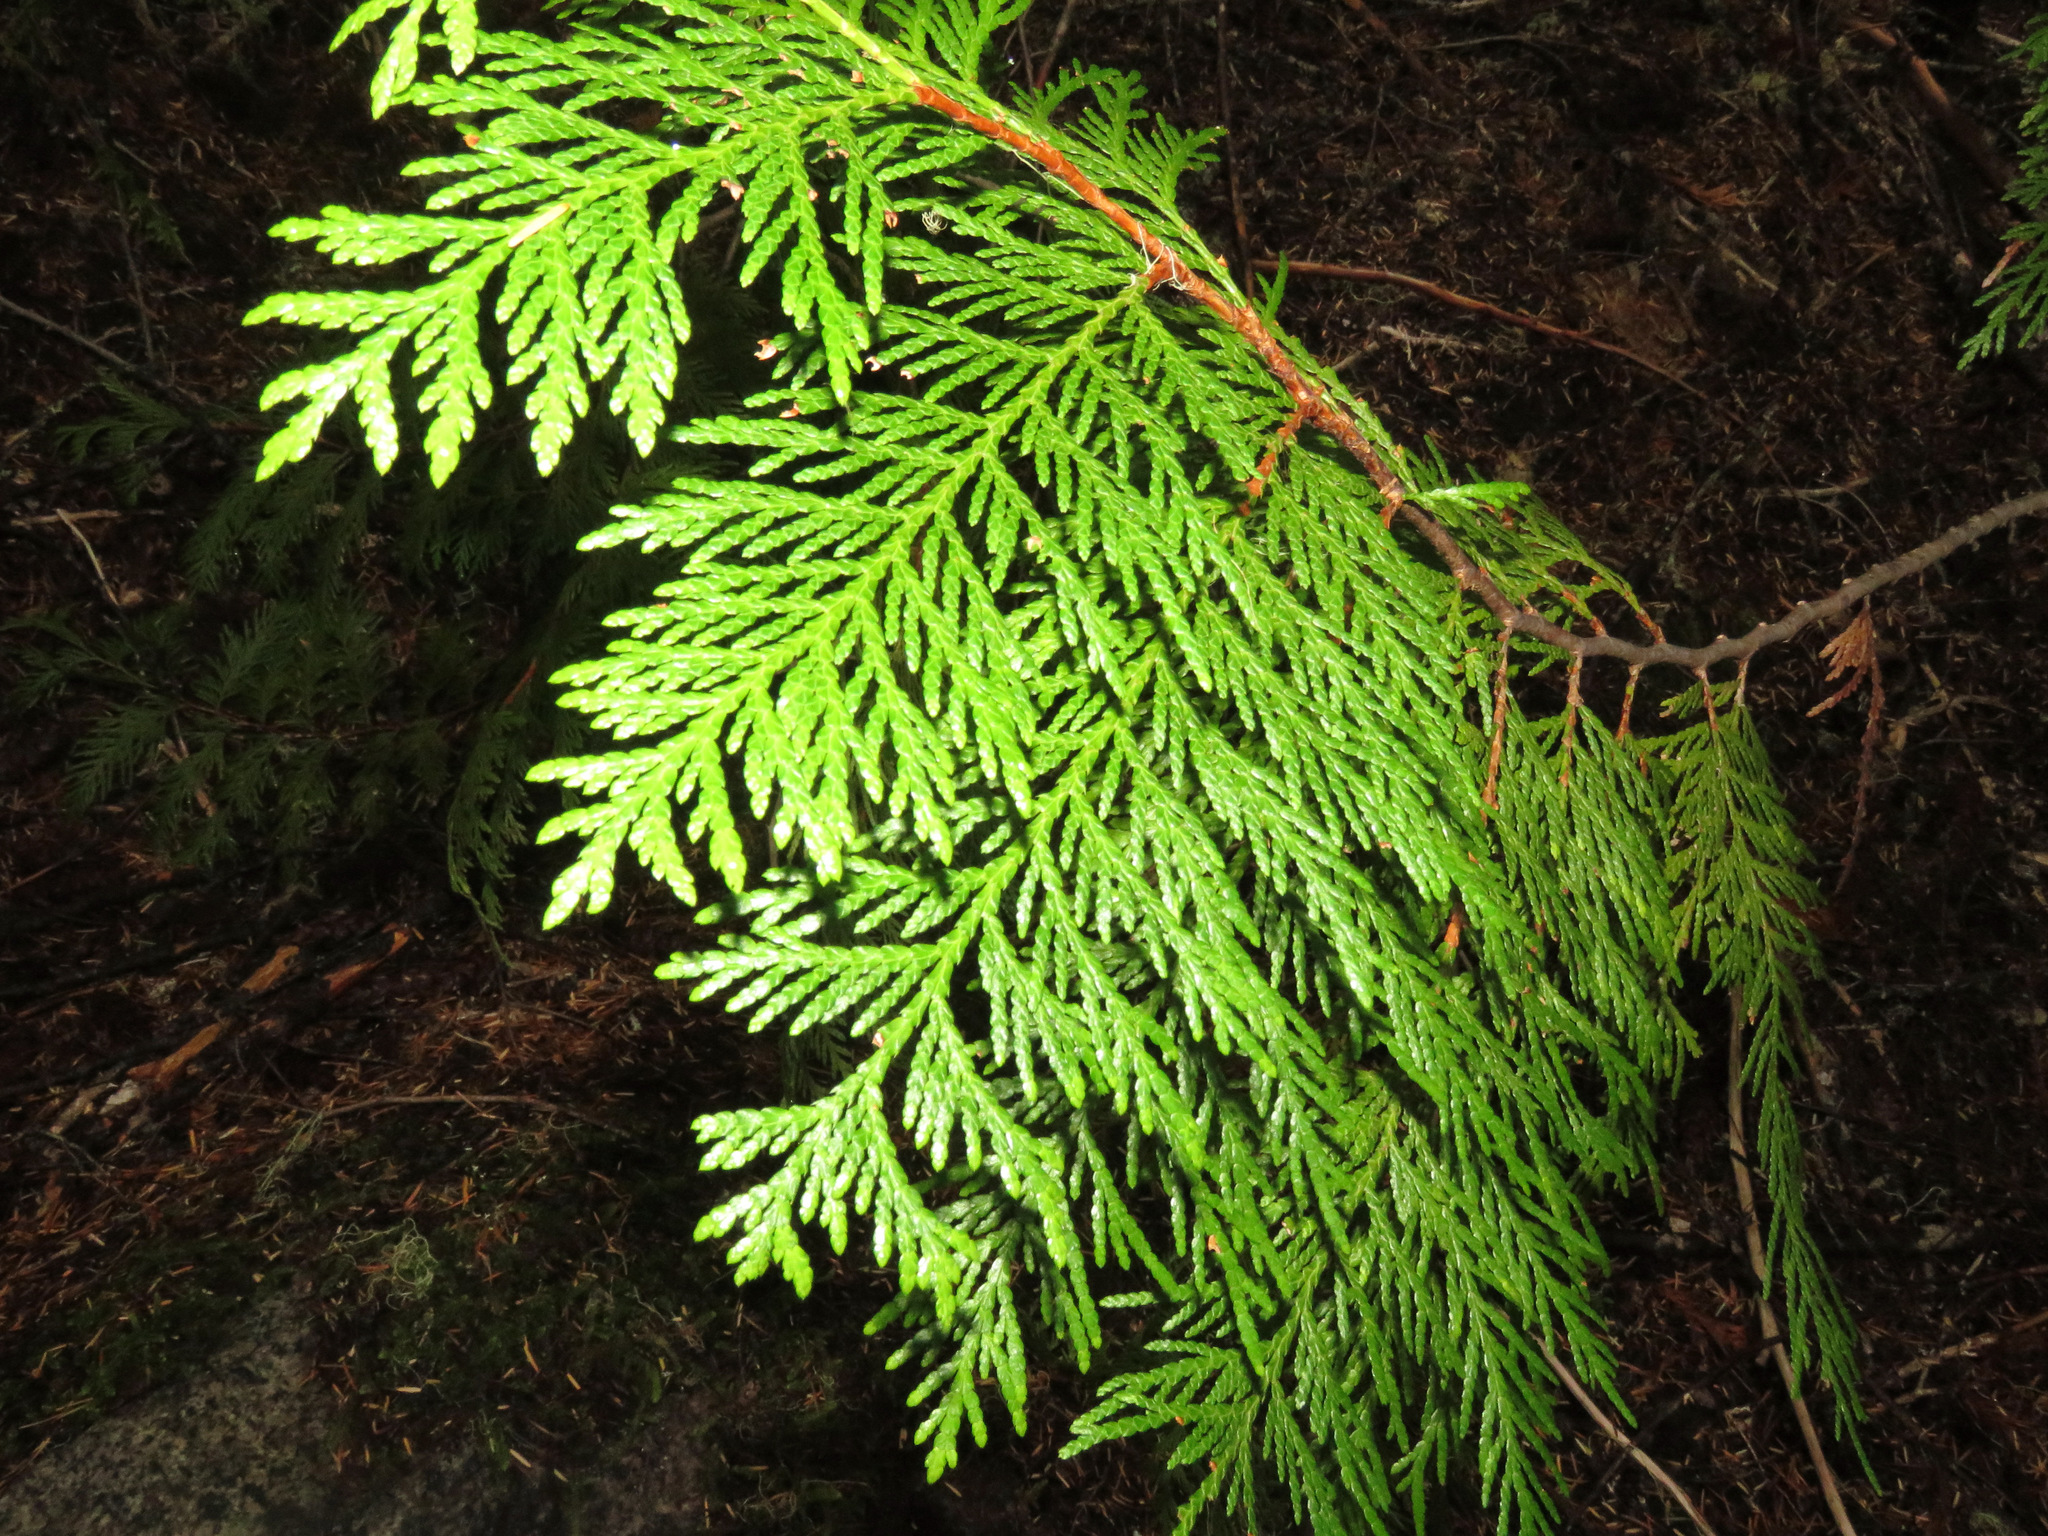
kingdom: Plantae
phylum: Tracheophyta
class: Pinopsida
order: Pinales
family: Cupressaceae
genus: Thuja
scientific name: Thuja plicata
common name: Western red-cedar
